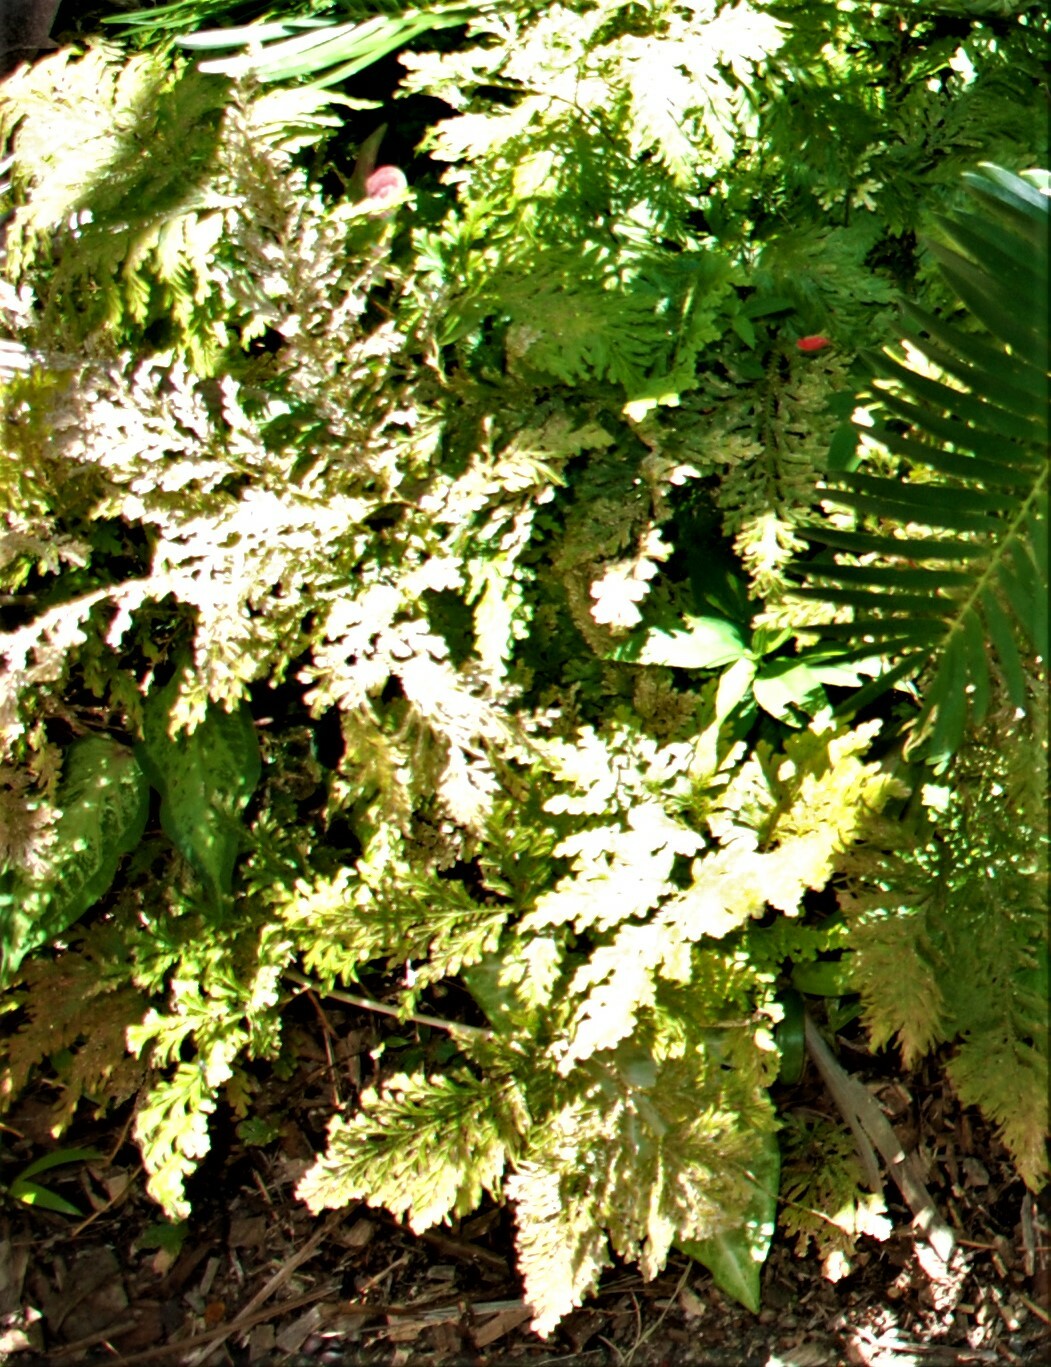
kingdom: Plantae
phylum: Tracheophyta
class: Lycopodiopsida
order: Selaginellales
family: Selaginellaceae
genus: Selaginella
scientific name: Selaginella willdenowii
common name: Willdenow's spikemoss
